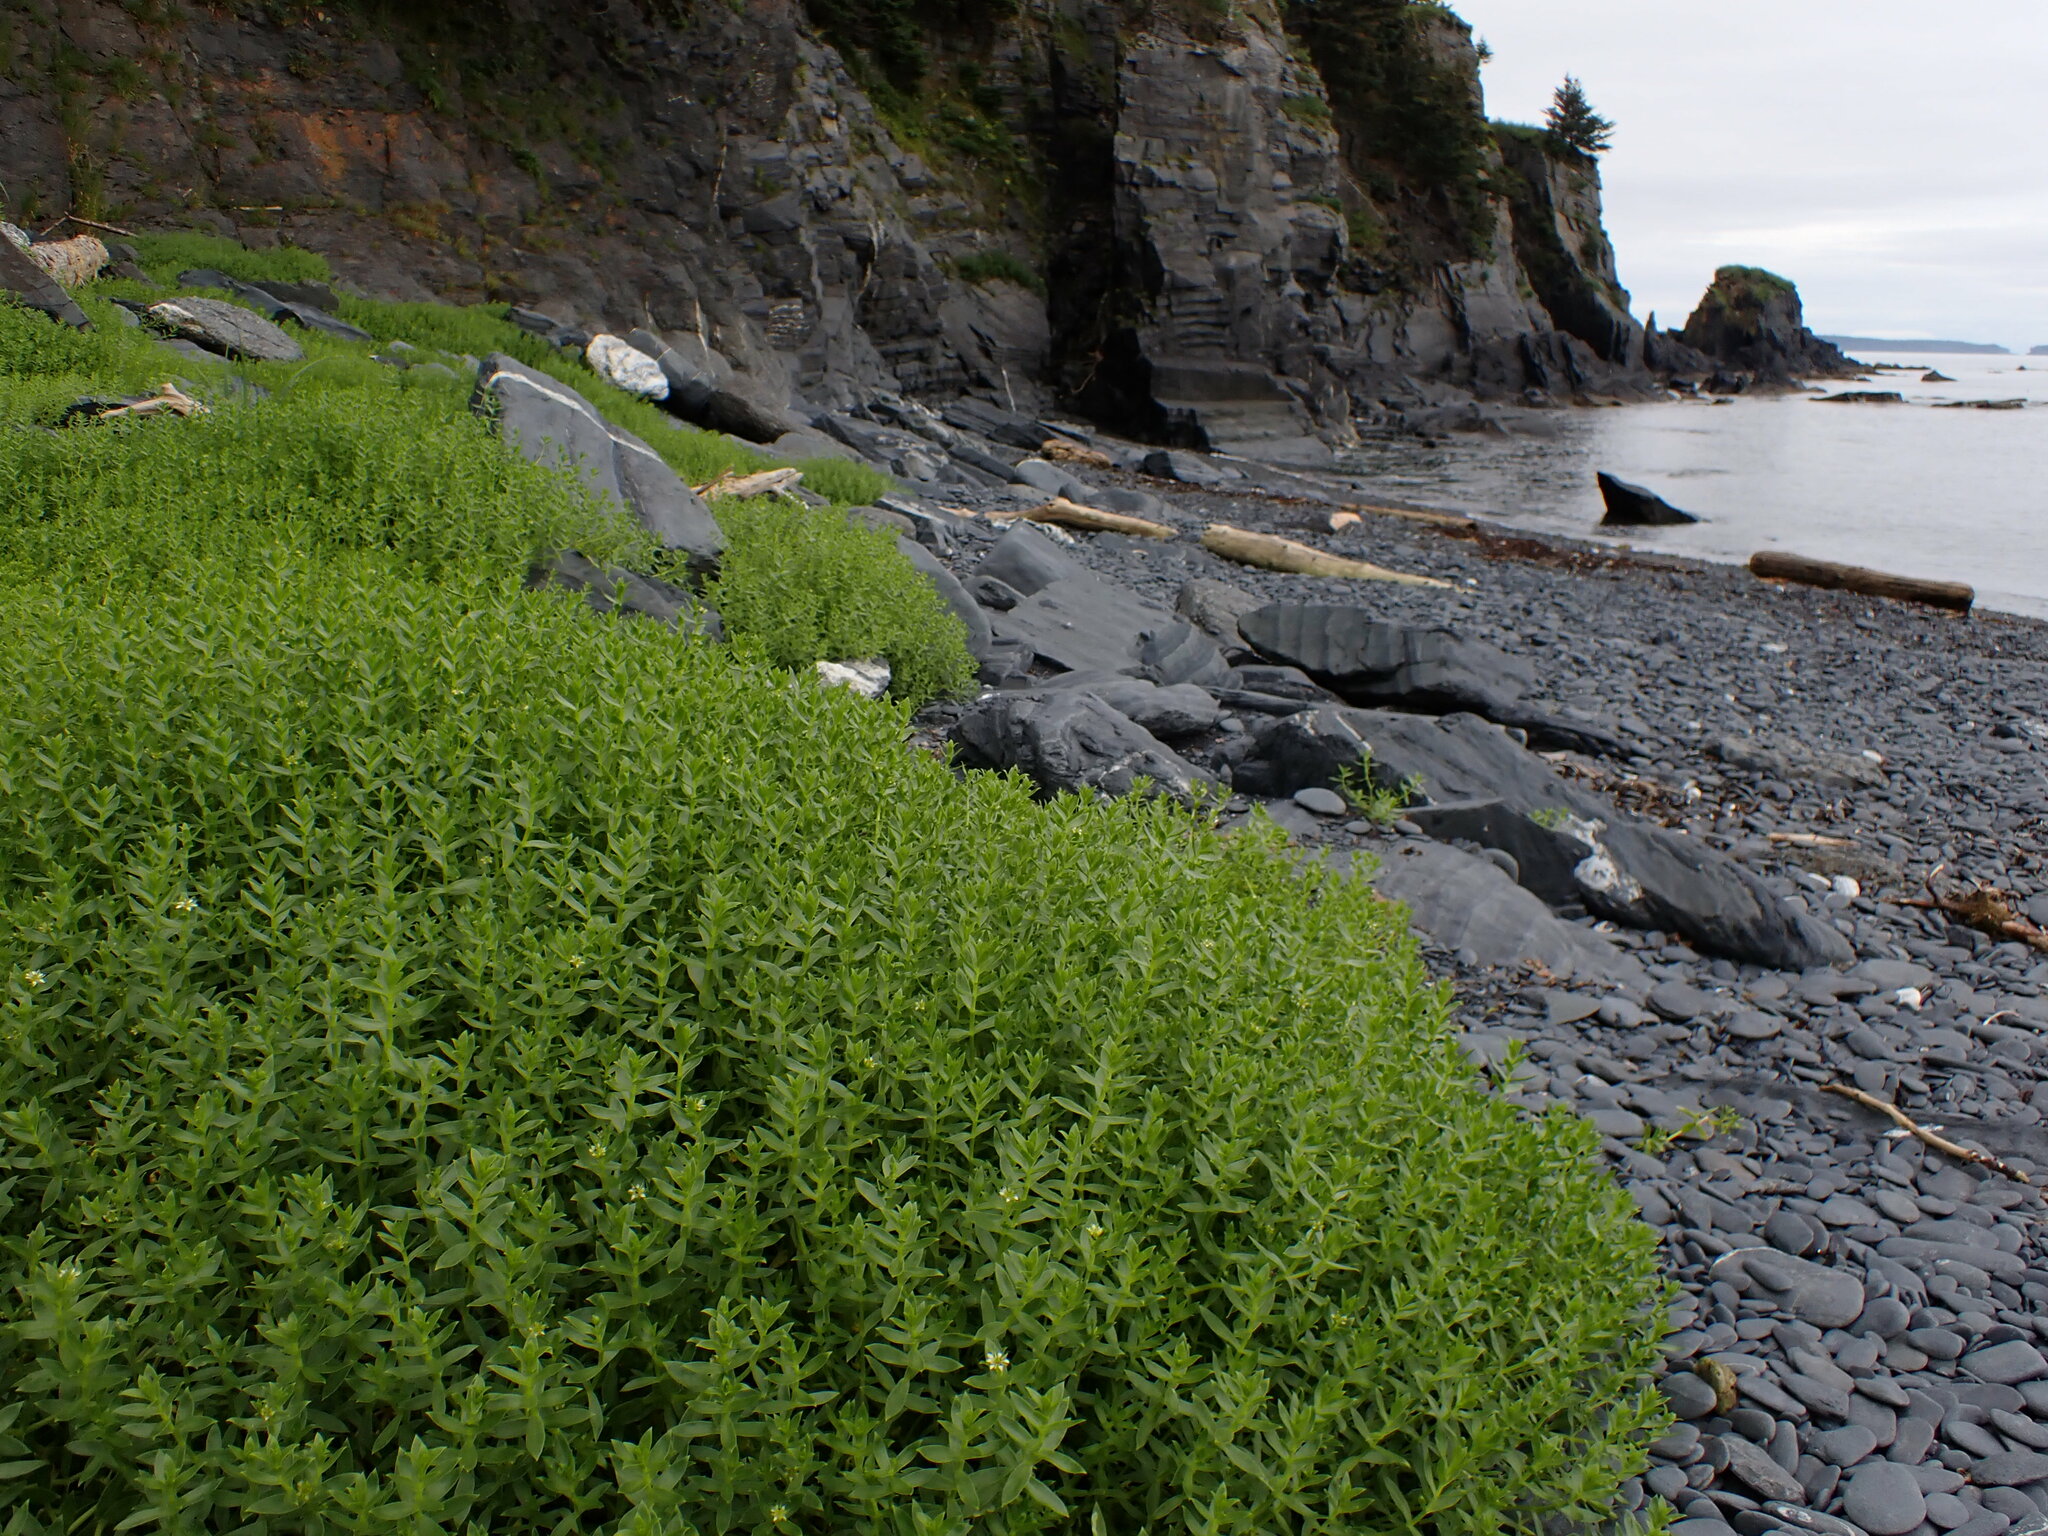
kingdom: Plantae
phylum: Tracheophyta
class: Magnoliopsida
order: Caryophyllales
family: Caryophyllaceae
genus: Honckenya
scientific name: Honckenya peploides
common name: Sea sandwort
